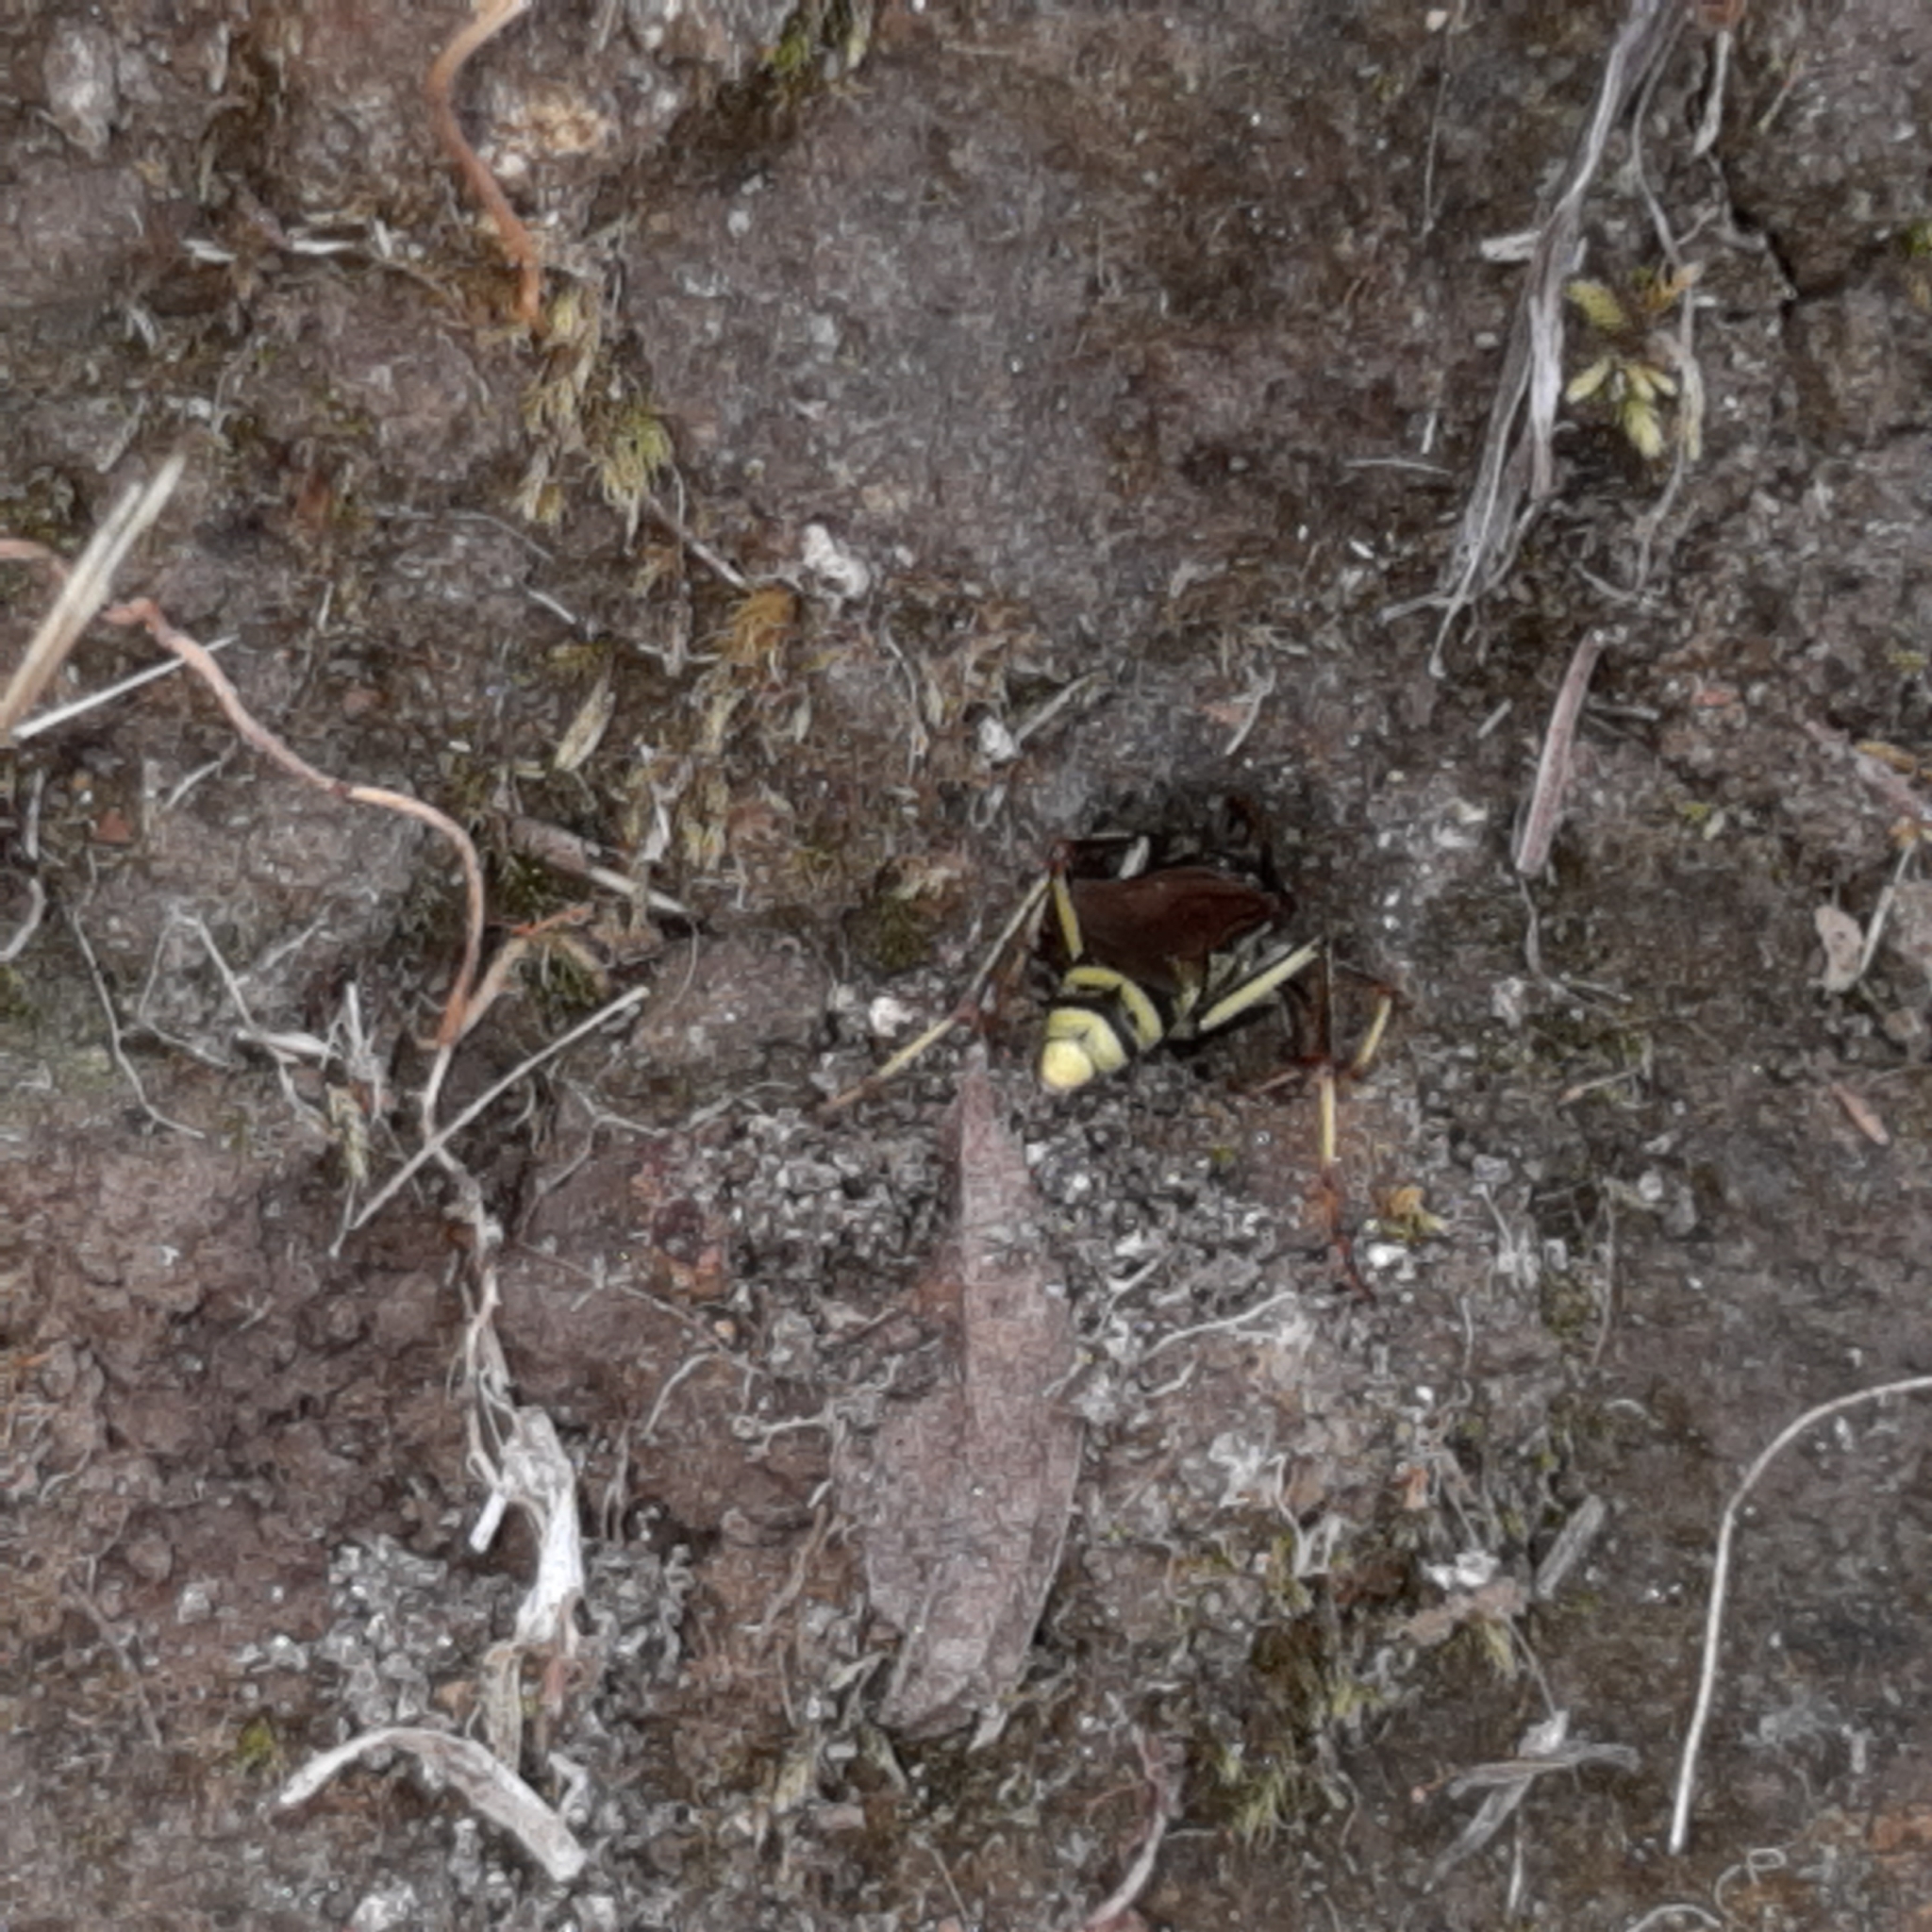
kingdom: Animalia
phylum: Arthropoda
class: Insecta
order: Hymenoptera
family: Pompilidae
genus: Poecilopompilus
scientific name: Poecilopompilus mixtus
